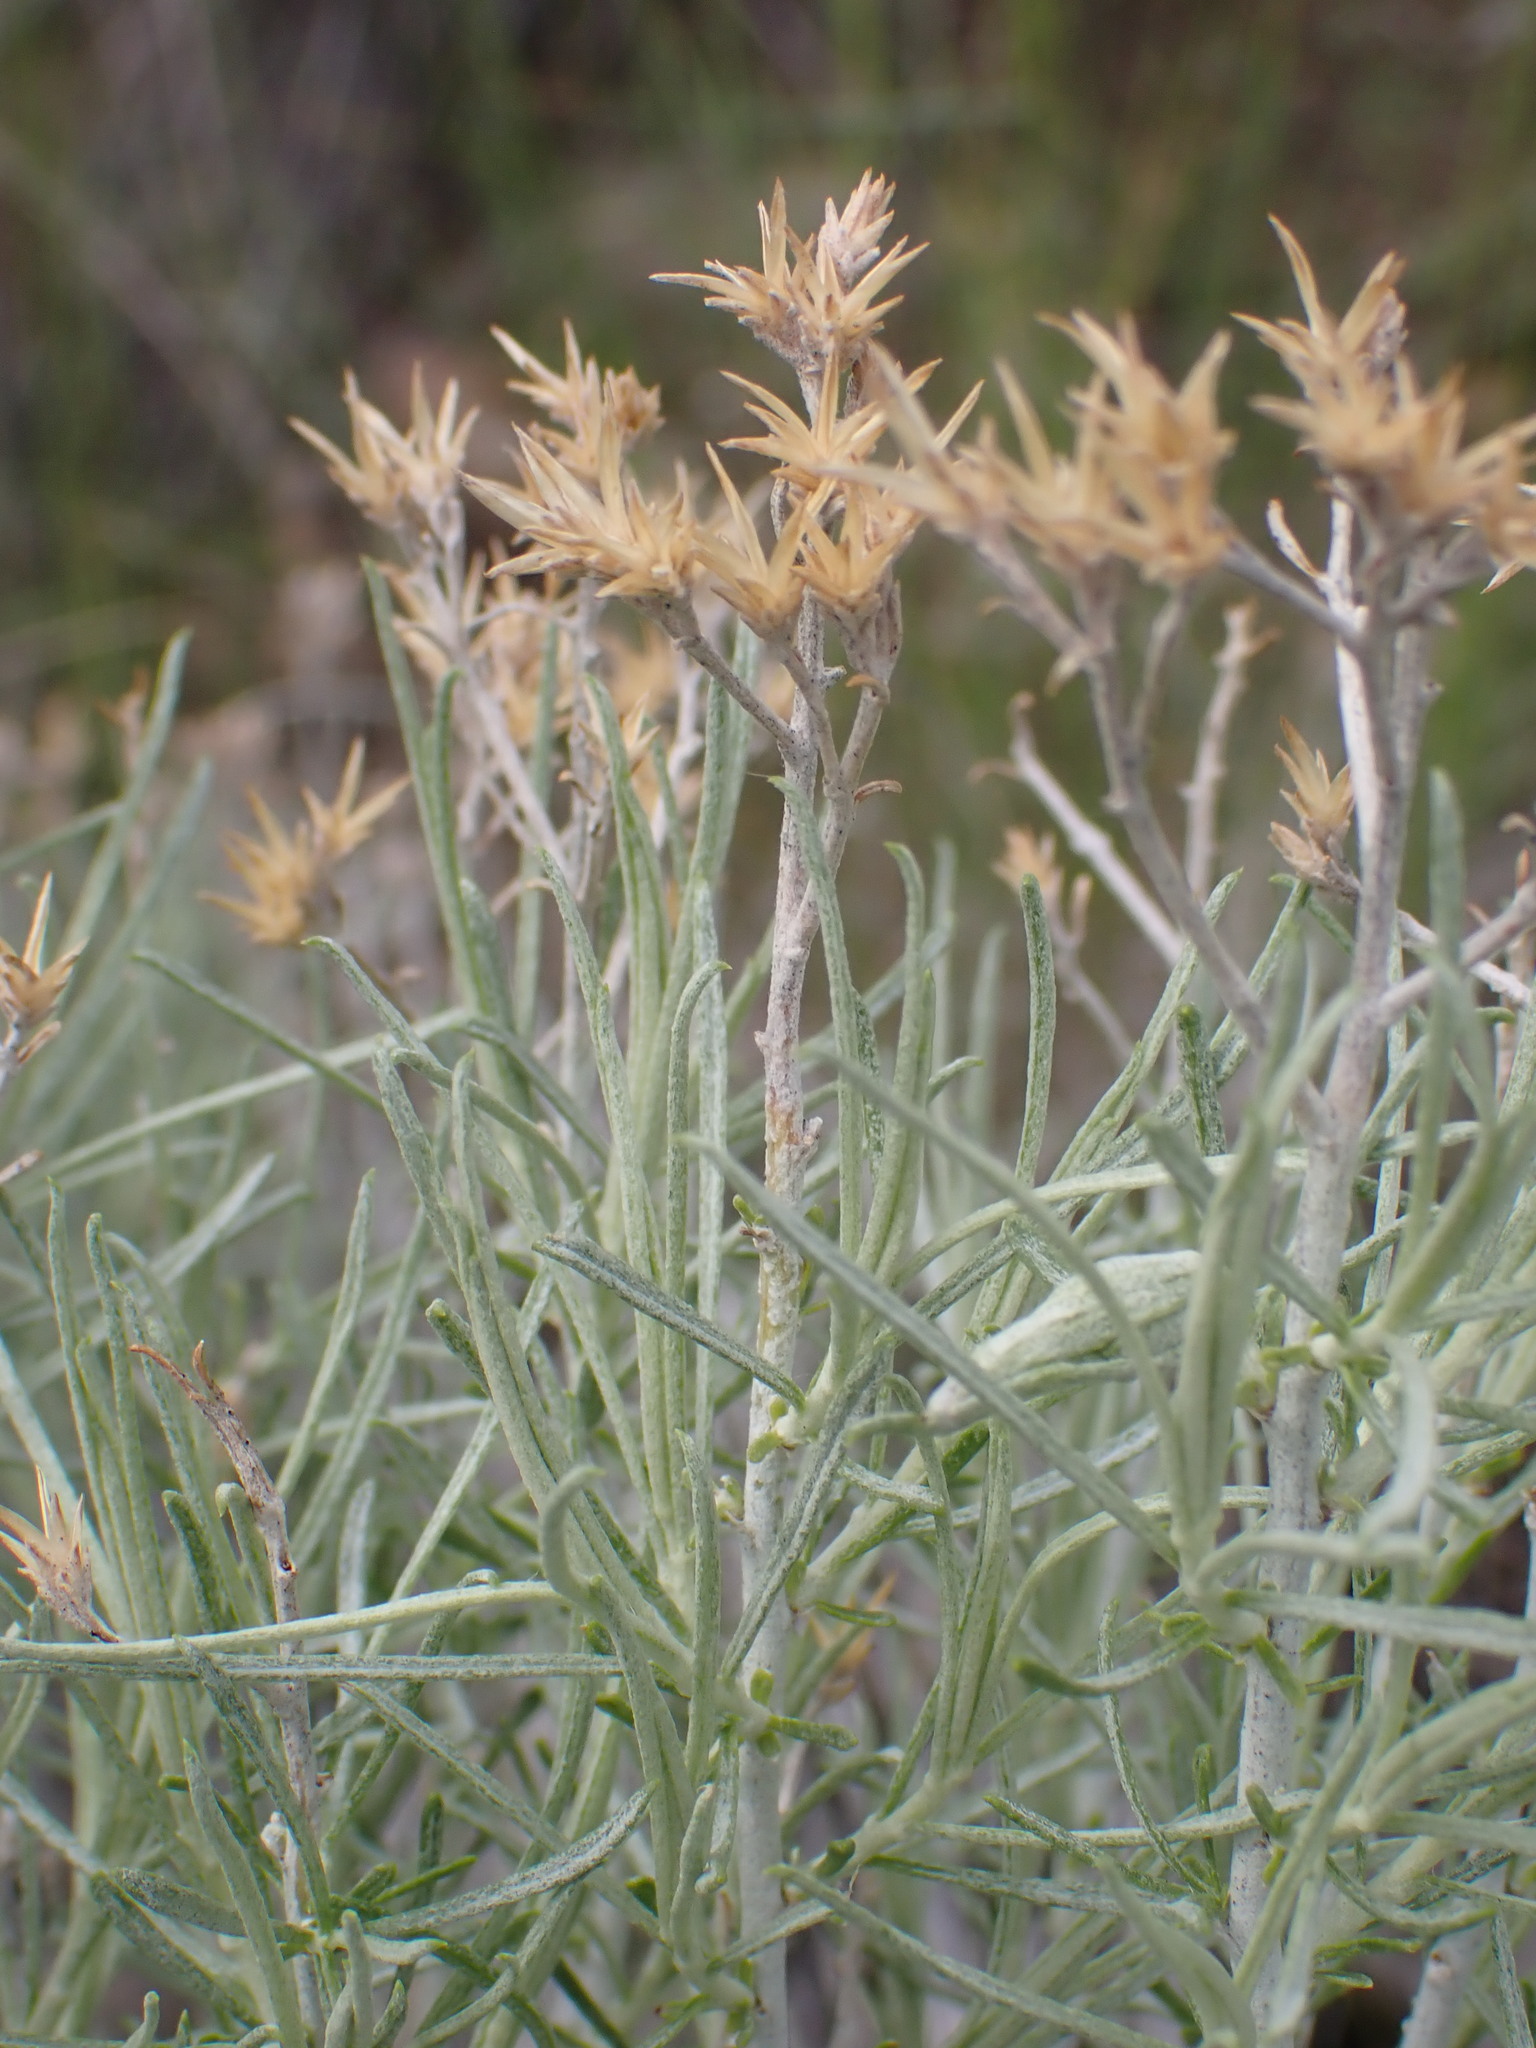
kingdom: Plantae
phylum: Tracheophyta
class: Magnoliopsida
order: Asterales
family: Asteraceae
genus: Ericameria
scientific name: Ericameria nauseosa
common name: Rubber rabbitbrush
